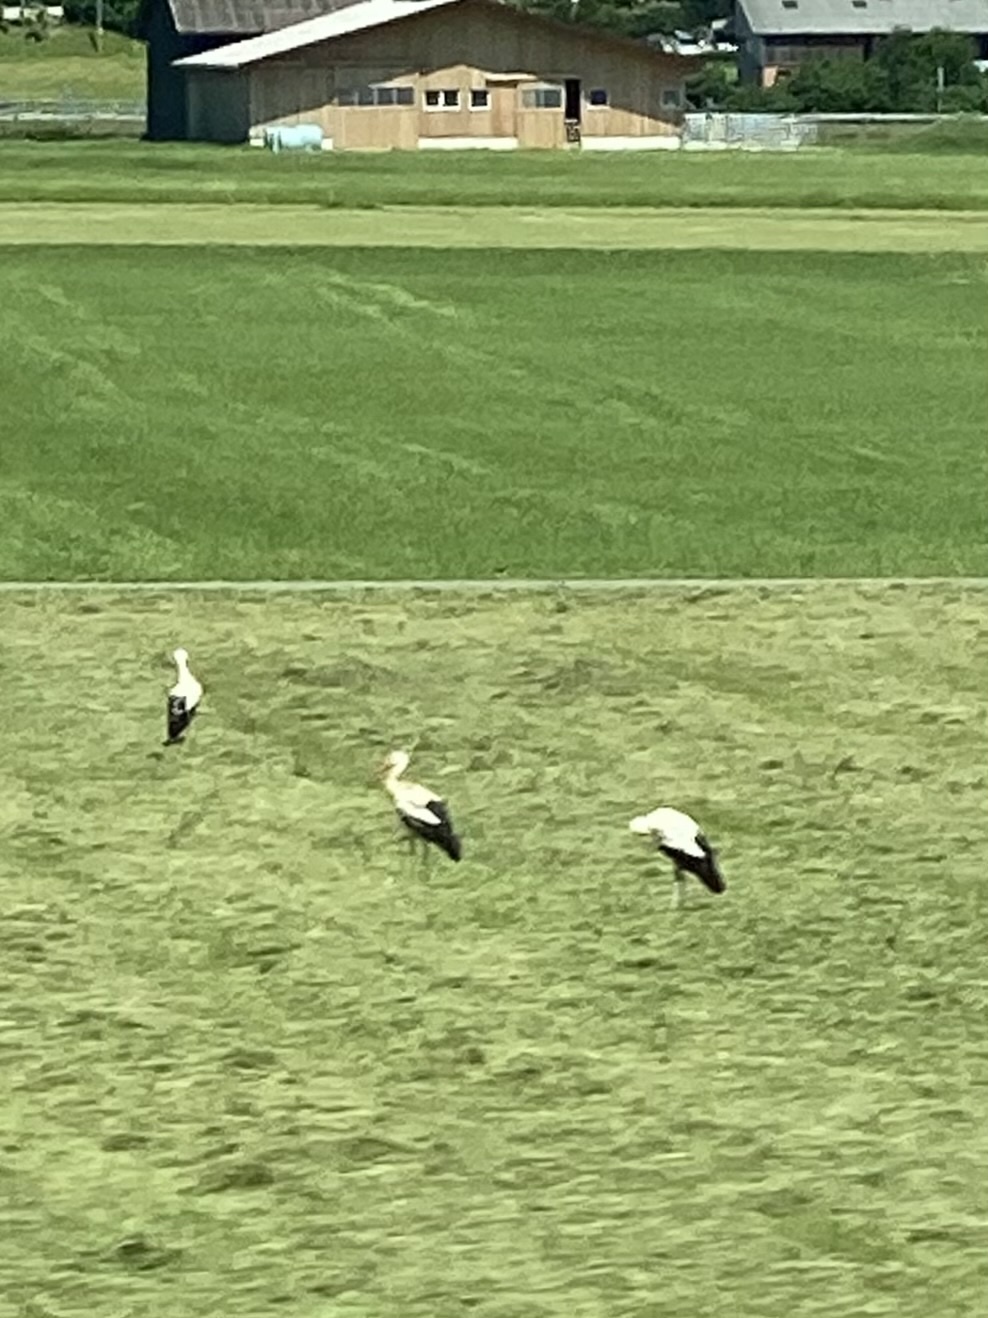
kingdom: Animalia
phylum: Chordata
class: Aves
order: Ciconiiformes
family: Ciconiidae
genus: Ciconia
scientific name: Ciconia ciconia
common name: White stork
